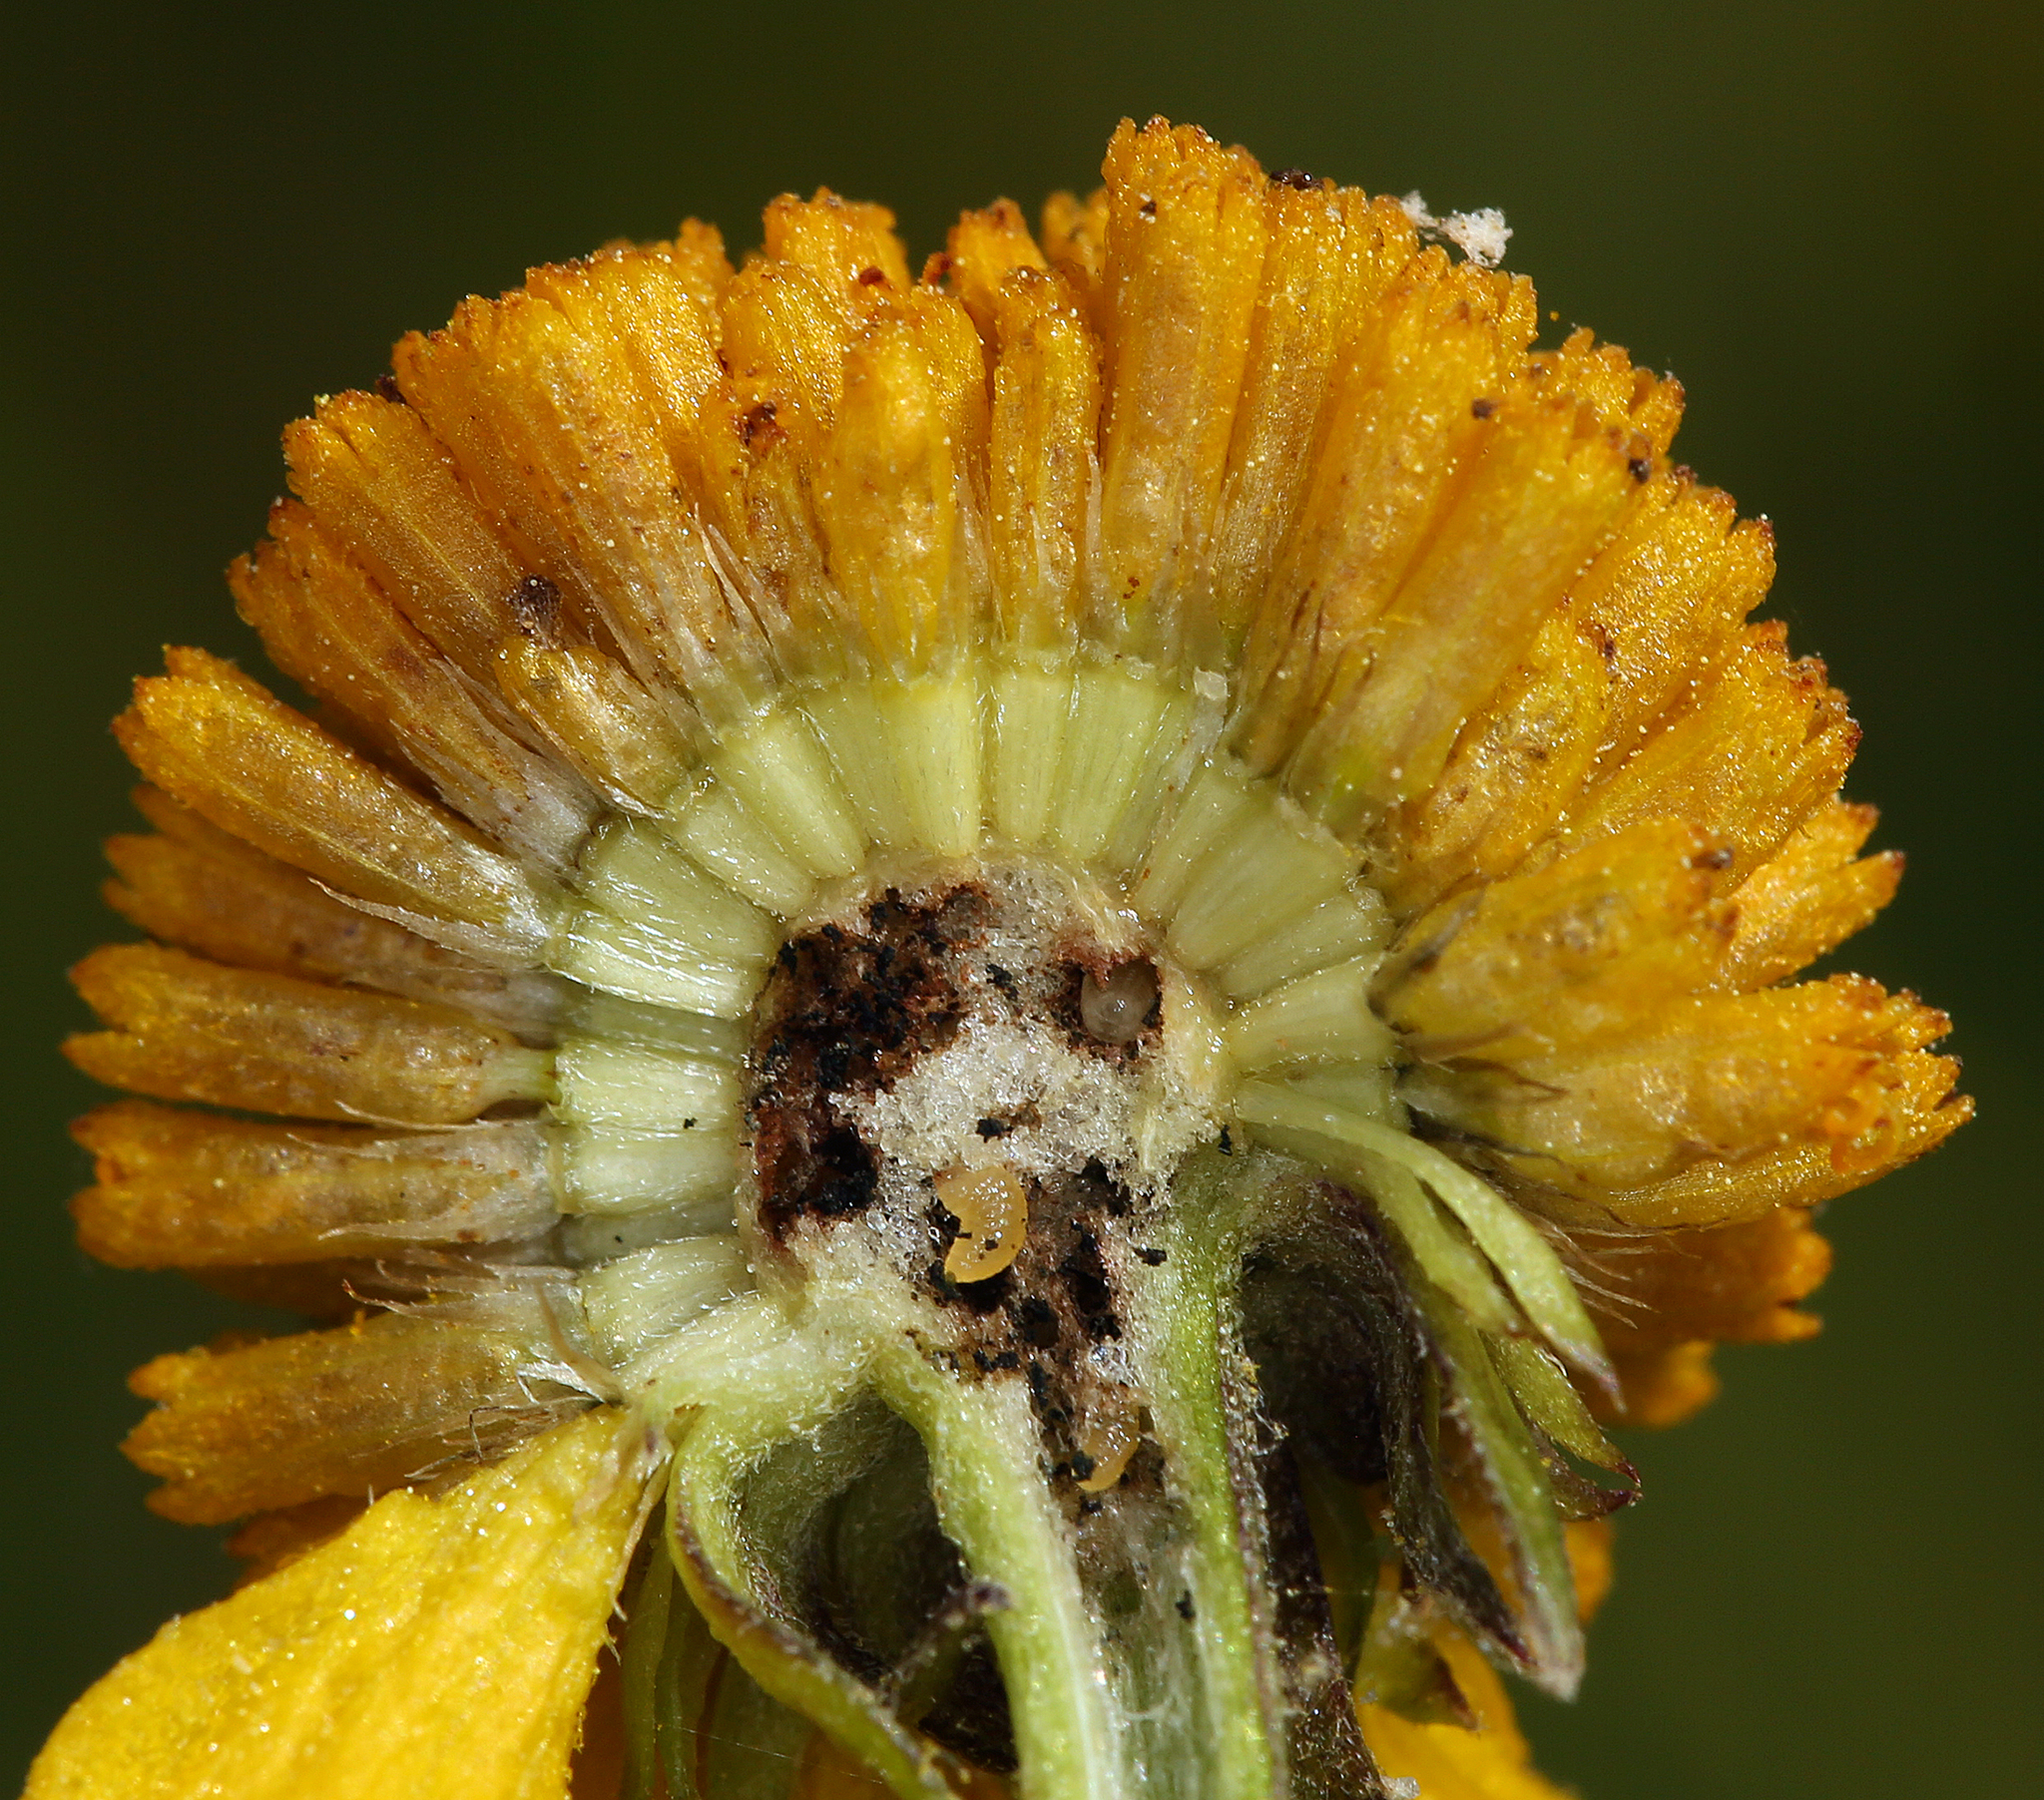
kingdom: Plantae
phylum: Tracheophyta
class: Magnoliopsida
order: Asterales
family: Asteraceae
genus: Helenium
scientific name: Helenium bigelovii
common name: Bigelow's sneezeweed
